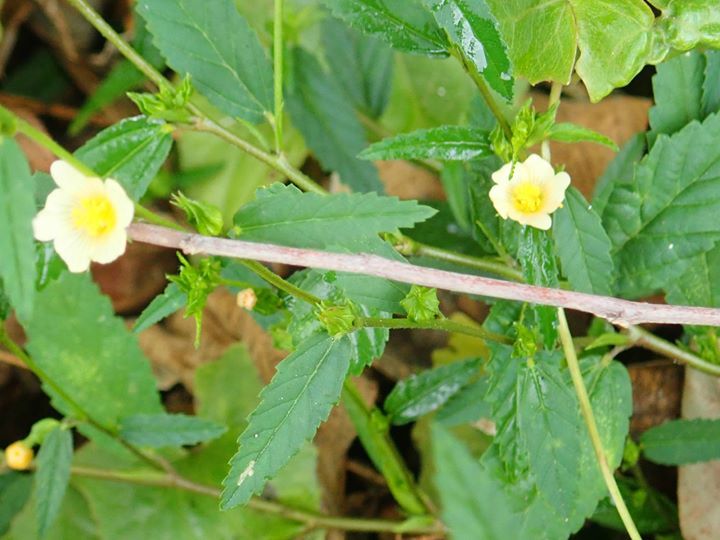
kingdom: Plantae
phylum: Tracheophyta
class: Magnoliopsida
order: Malvales
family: Malvaceae
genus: Sida
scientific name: Sida acuta
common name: Common wireweed
